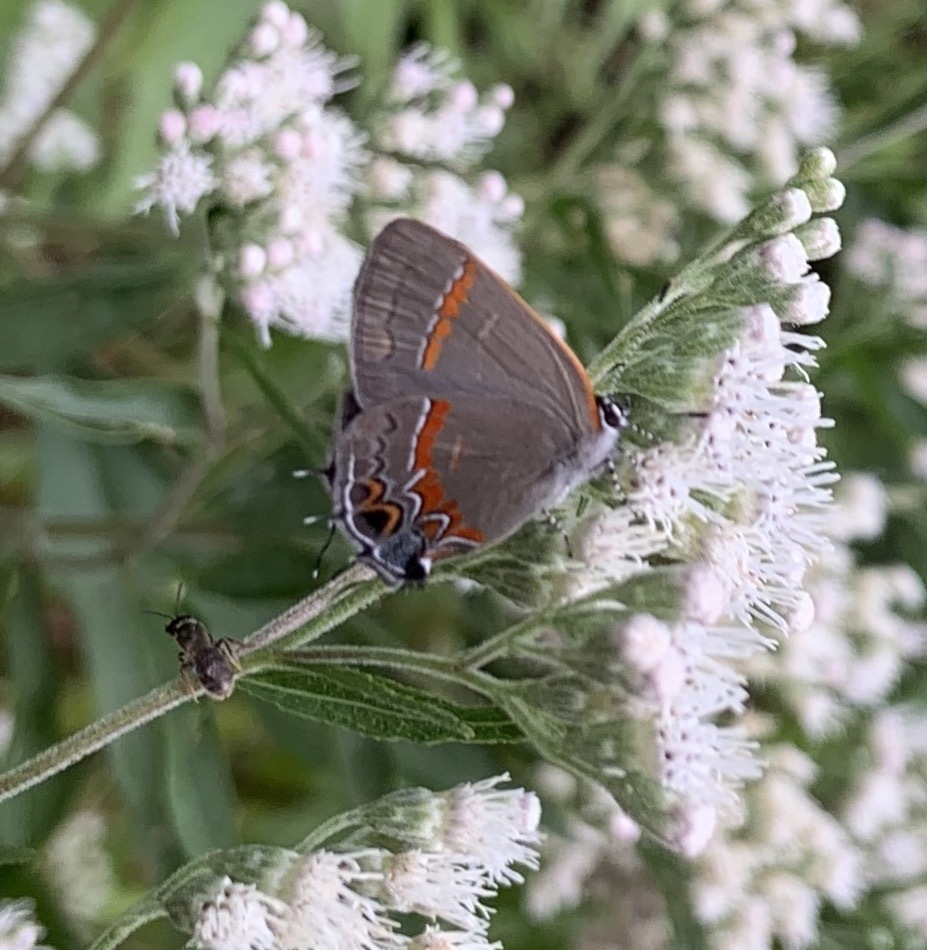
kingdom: Animalia
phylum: Arthropoda
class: Insecta
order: Lepidoptera
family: Lycaenidae
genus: Calycopis
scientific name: Calycopis cecrops
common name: Red-banded hairstreak
